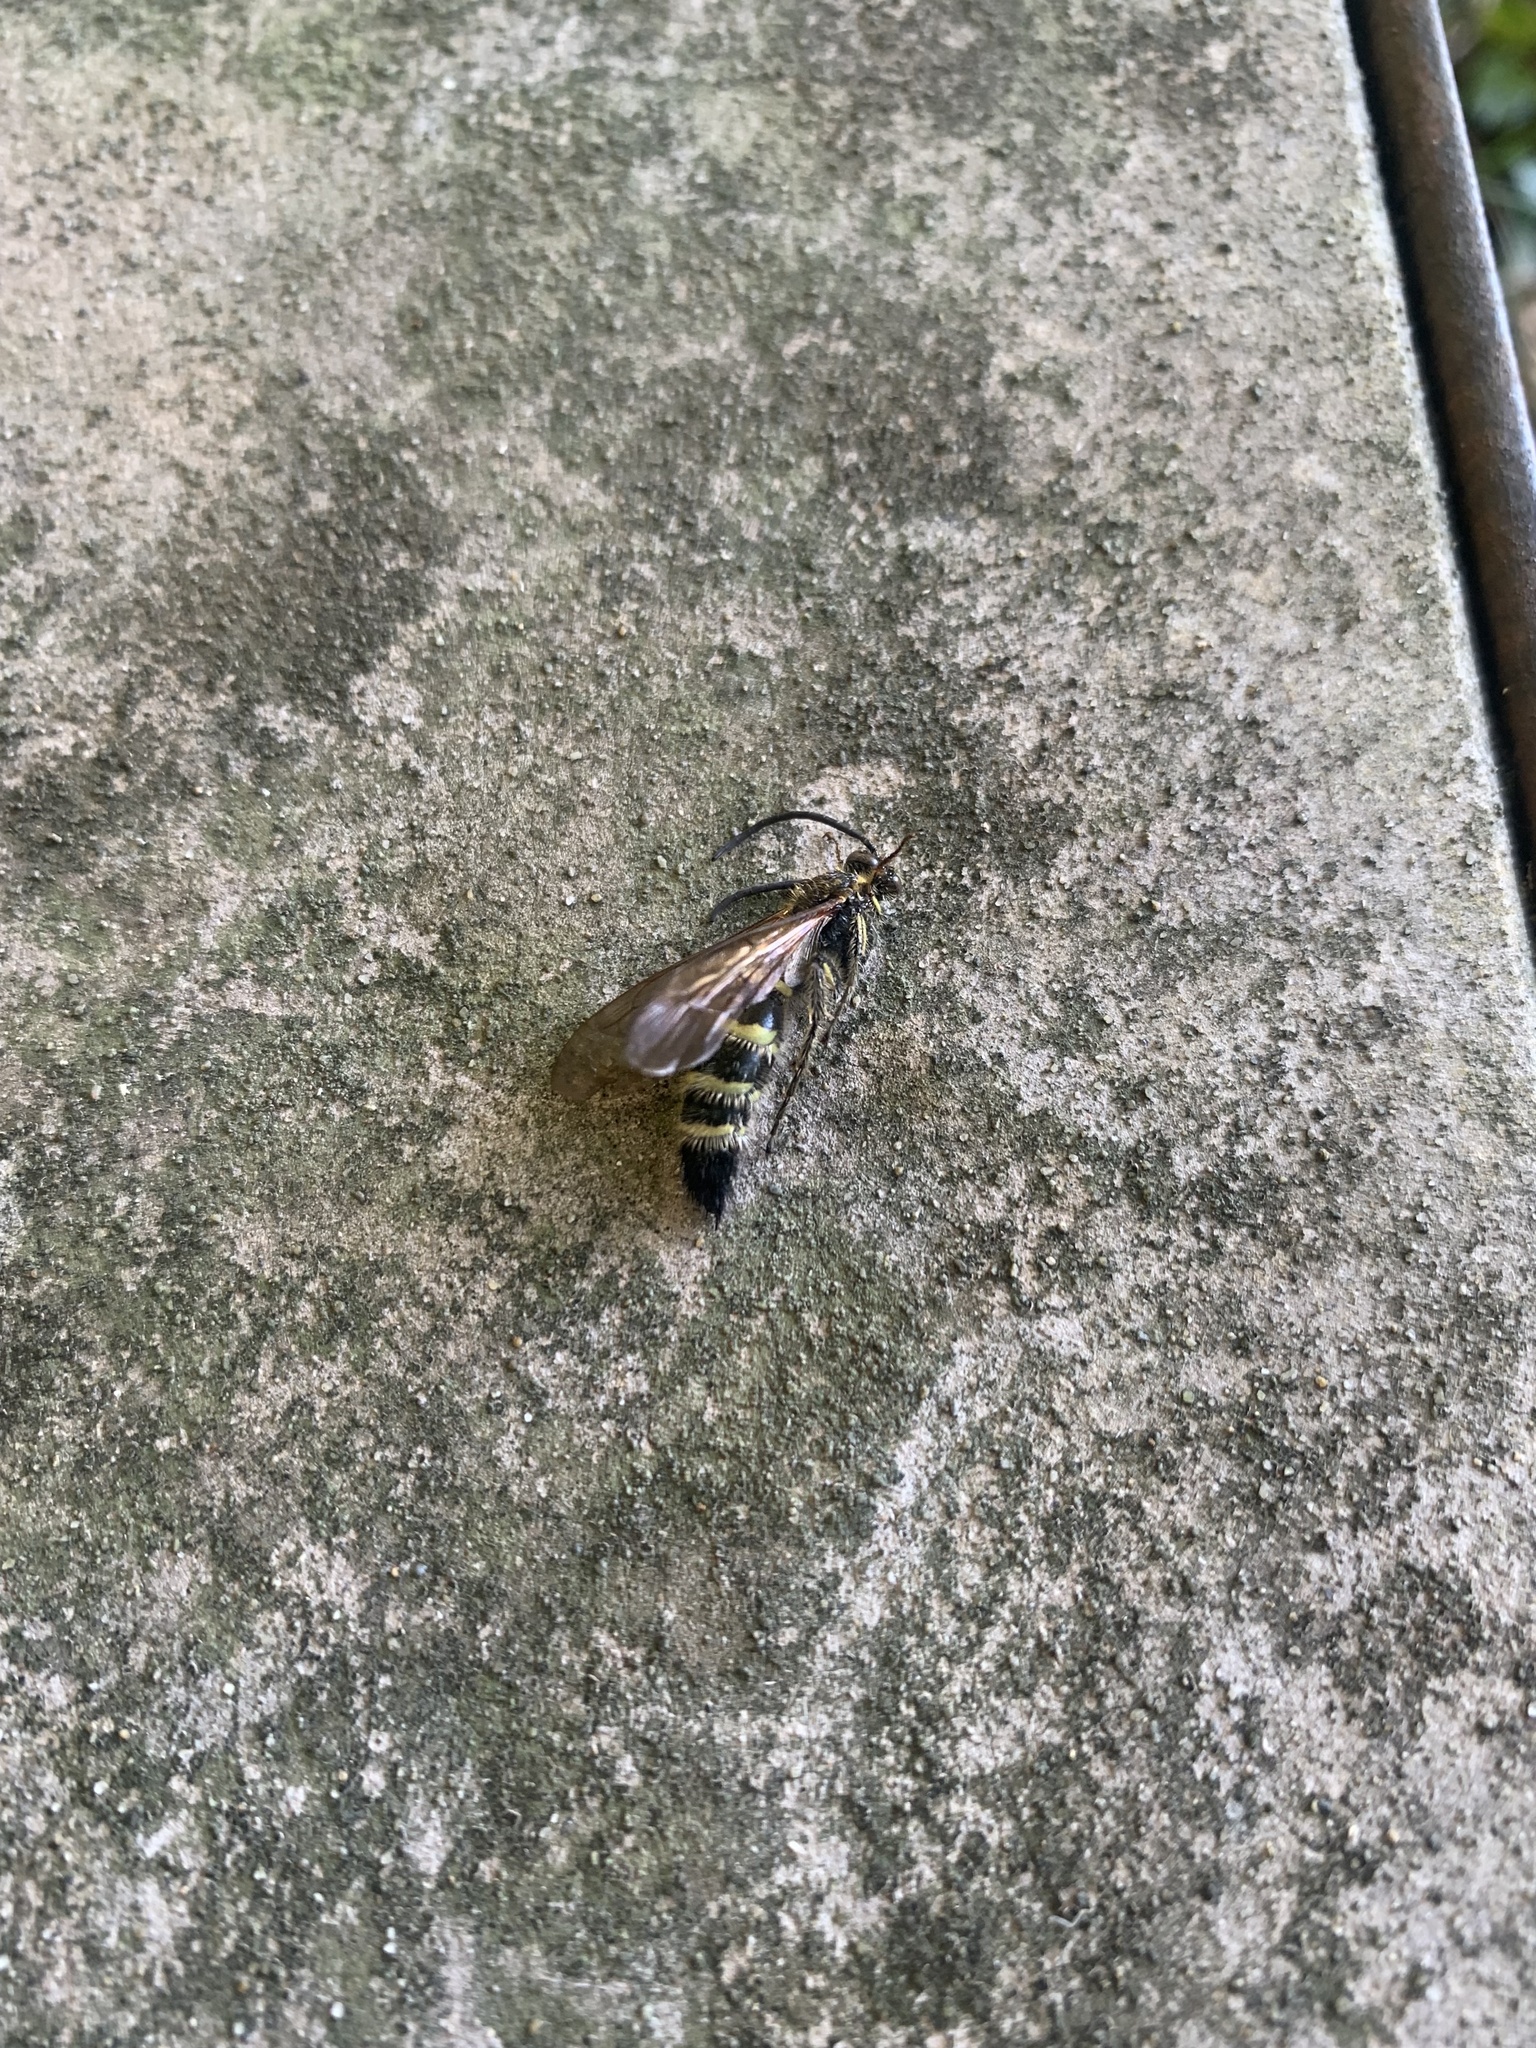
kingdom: Animalia
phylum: Arthropoda
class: Insecta
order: Hymenoptera
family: Scoliidae
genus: Campsomeris
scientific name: Campsomeris prismatica
